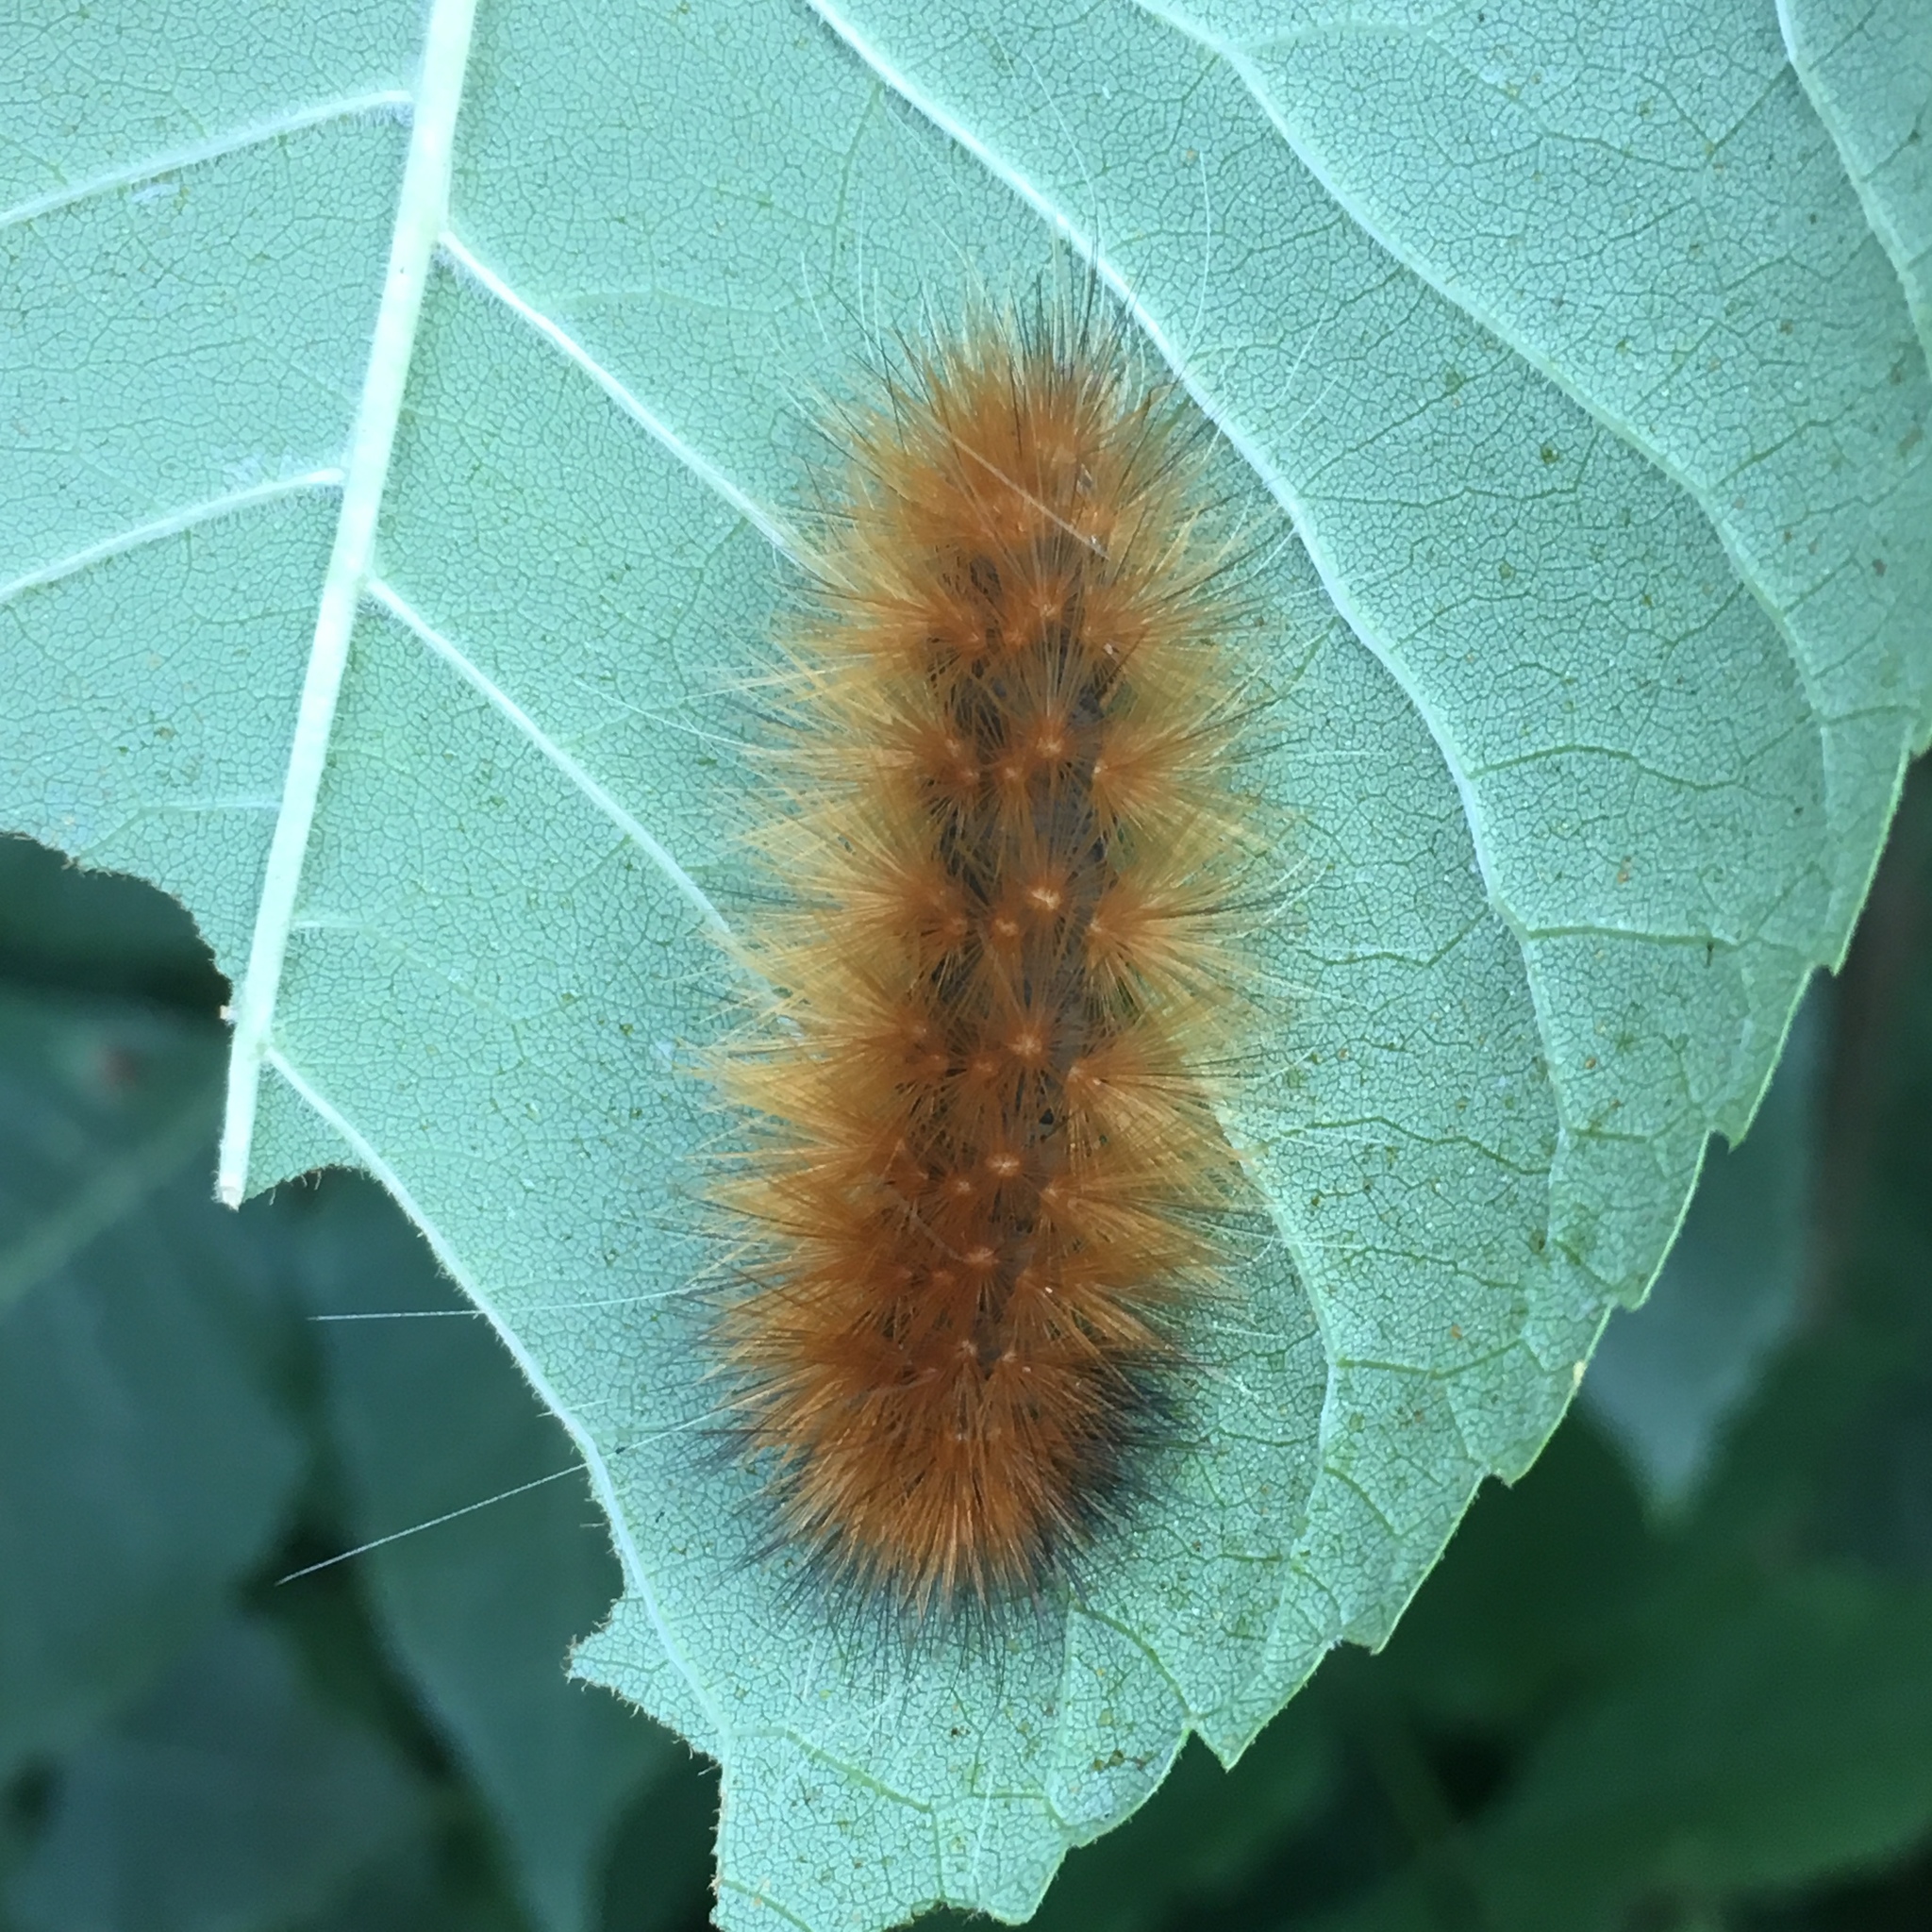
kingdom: Animalia
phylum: Arthropoda
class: Insecta
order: Lepidoptera
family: Erebidae
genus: Spilosoma
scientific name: Spilosoma virginica
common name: Virginia tiger moth
